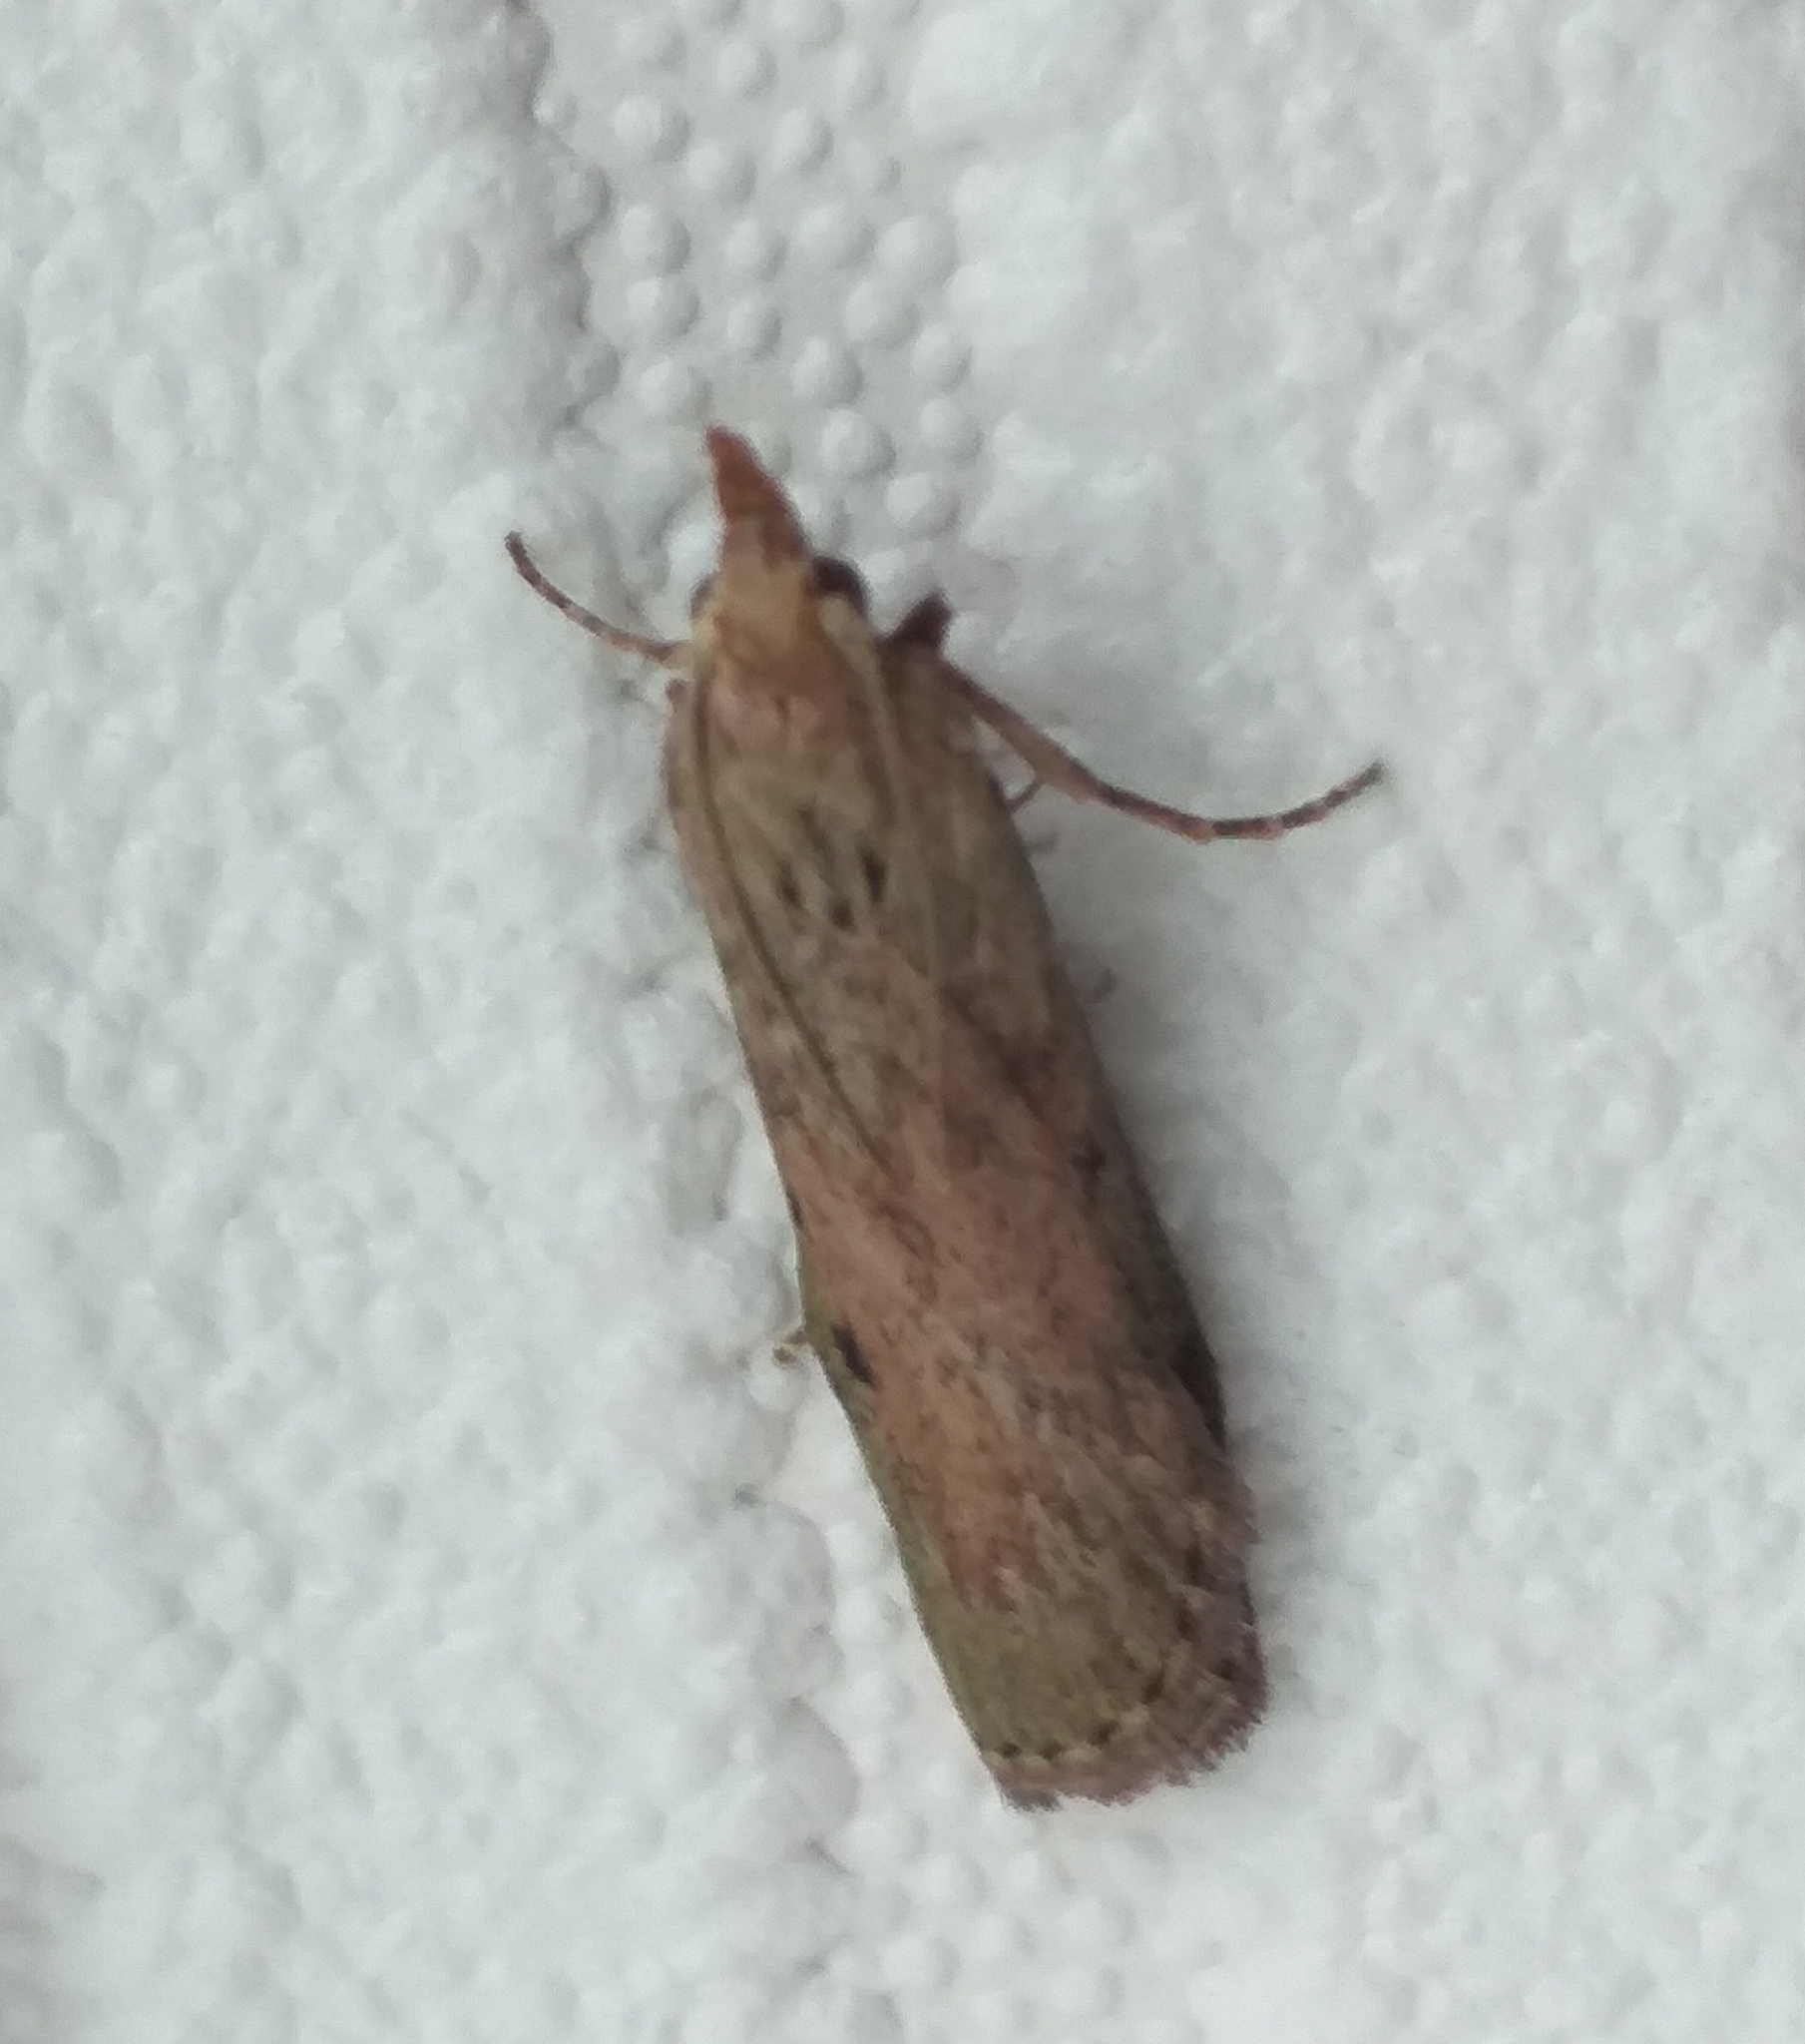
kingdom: Animalia
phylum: Arthropoda
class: Insecta
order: Lepidoptera
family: Pyralidae
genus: Aphomia
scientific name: Aphomia sociella
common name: Bee moth
